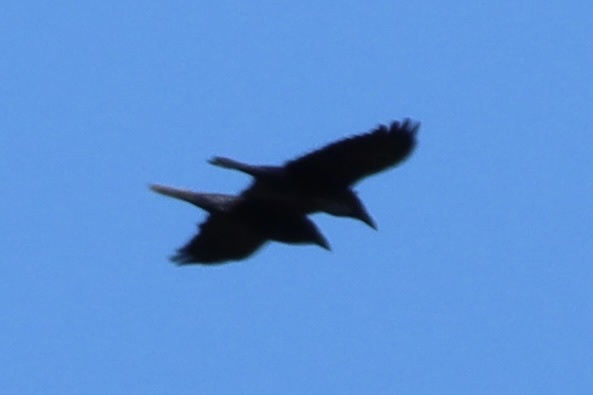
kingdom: Animalia
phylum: Chordata
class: Aves
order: Passeriformes
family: Corvidae
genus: Corvus
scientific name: Corvus corax
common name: Common raven
